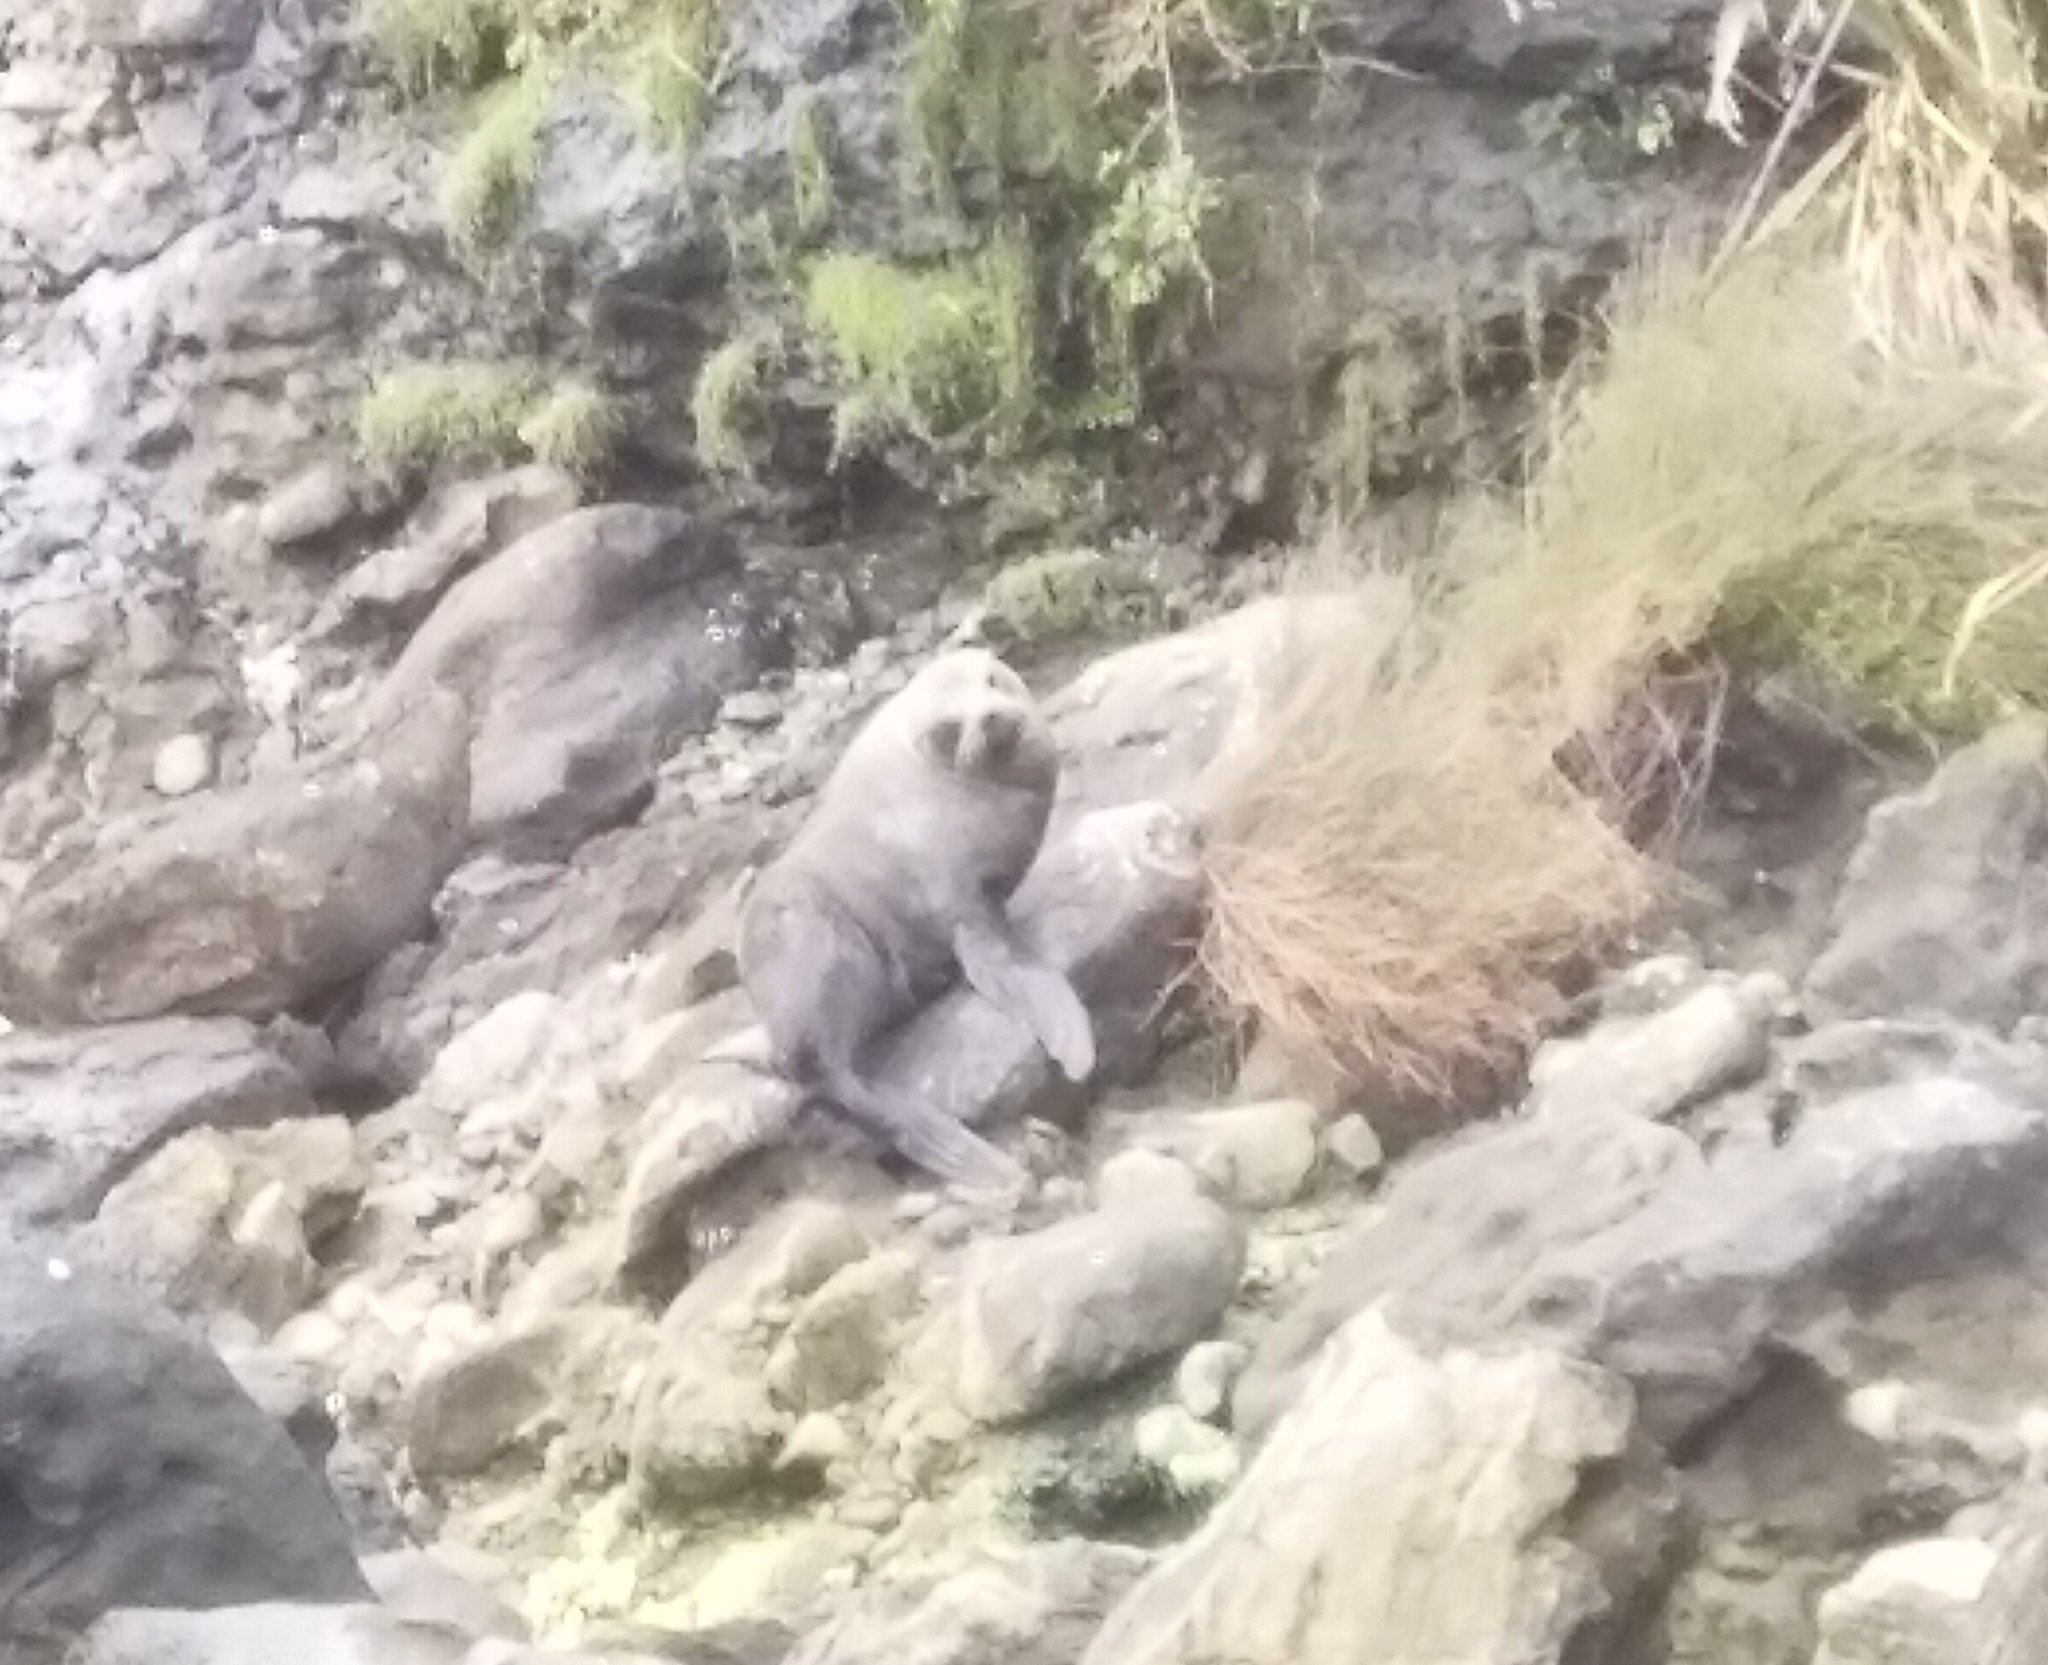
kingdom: Animalia
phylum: Chordata
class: Mammalia
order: Carnivora
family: Otariidae
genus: Arctocephalus
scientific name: Arctocephalus forsteri
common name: New zealand fur seal
